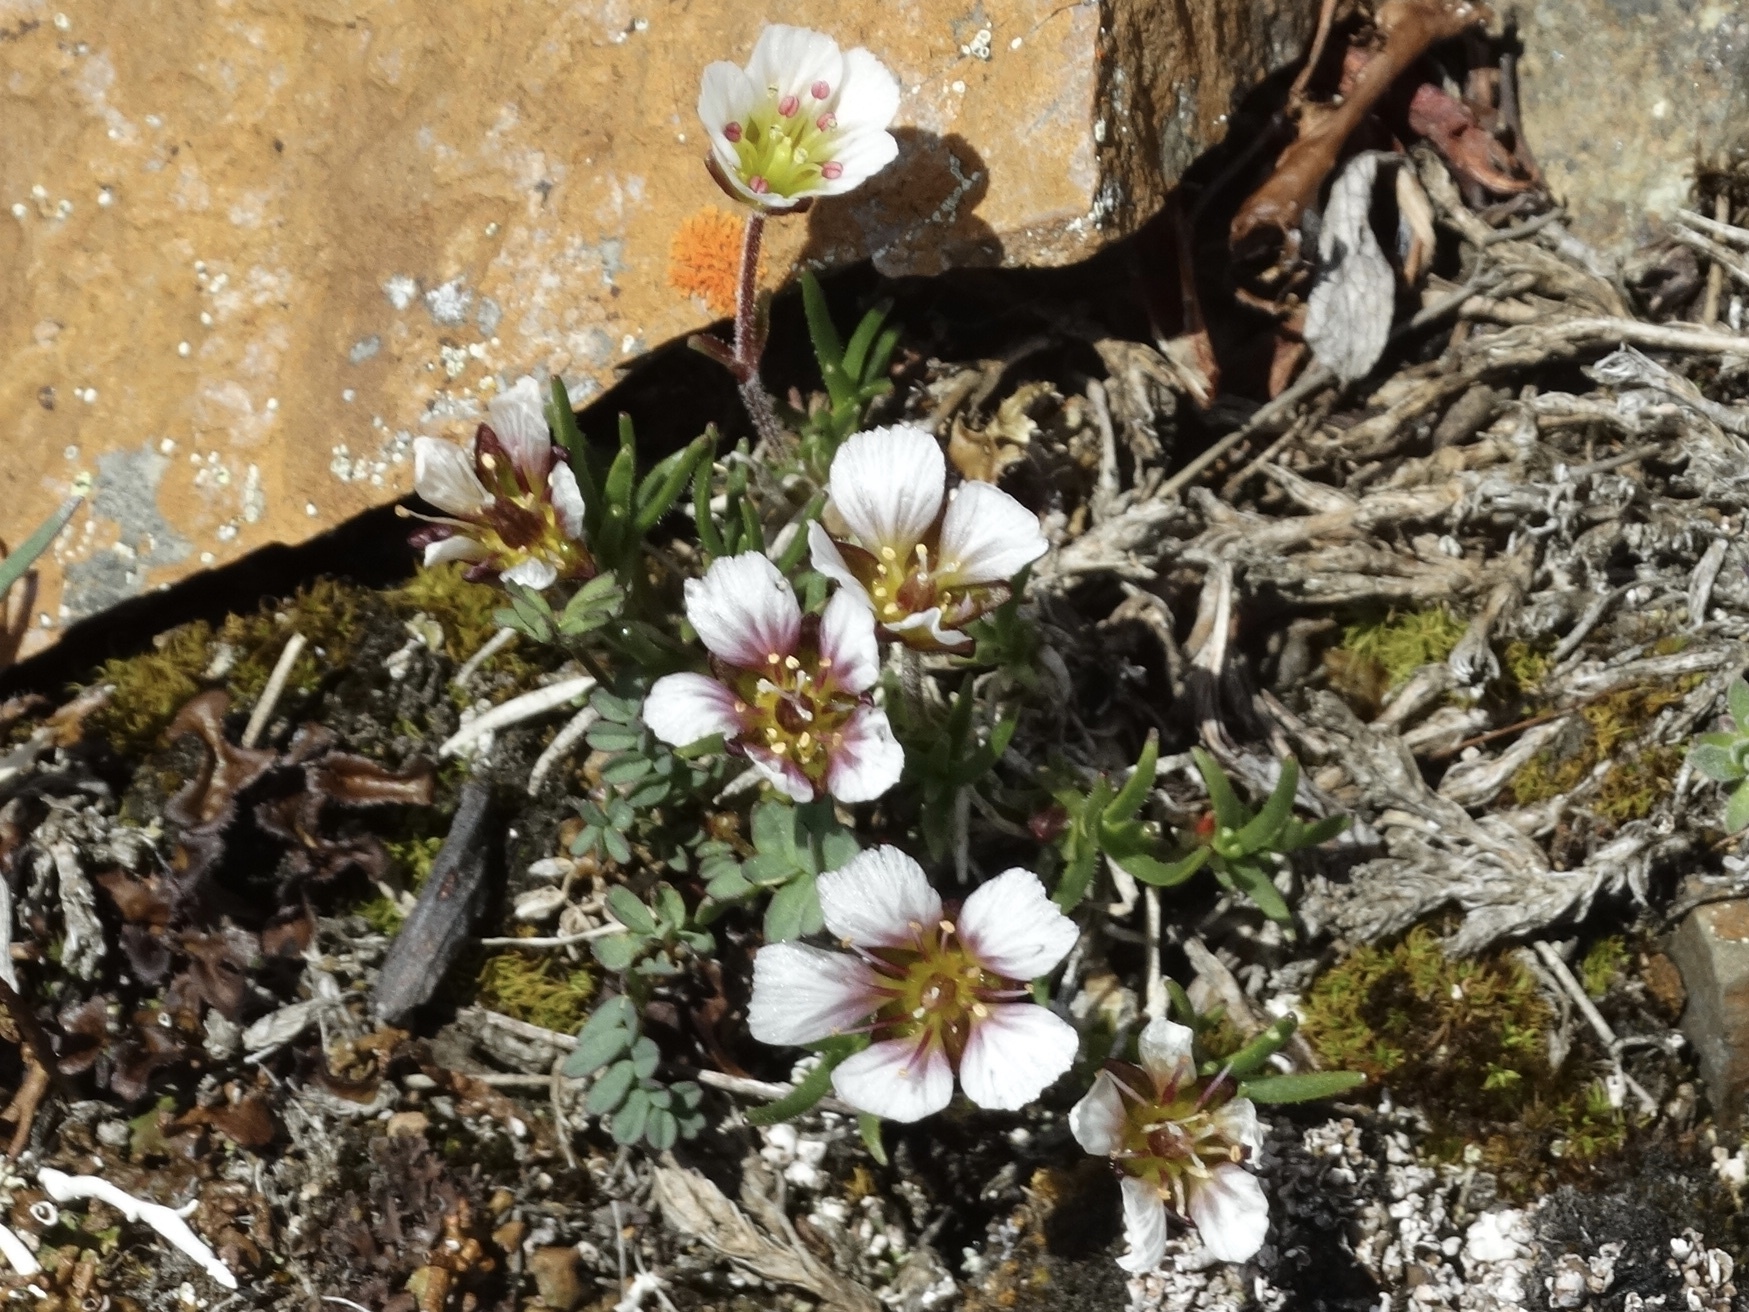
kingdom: Plantae
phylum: Tracheophyta
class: Magnoliopsida
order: Caryophyllales
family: Caryophyllaceae
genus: Cherleria
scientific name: Cherleria arctica
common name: Arctic sandwort
